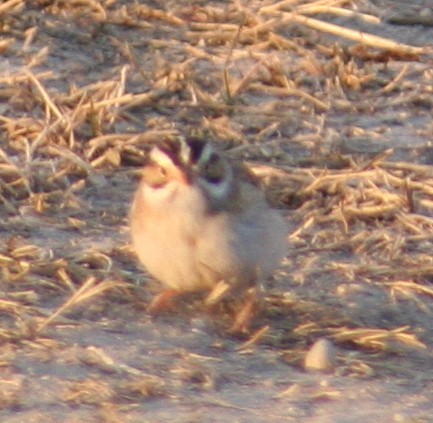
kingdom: Animalia
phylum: Chordata
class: Aves
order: Passeriformes
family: Passerellidae
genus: Spizella
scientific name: Spizella pallida
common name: Clay-colored sparrow
